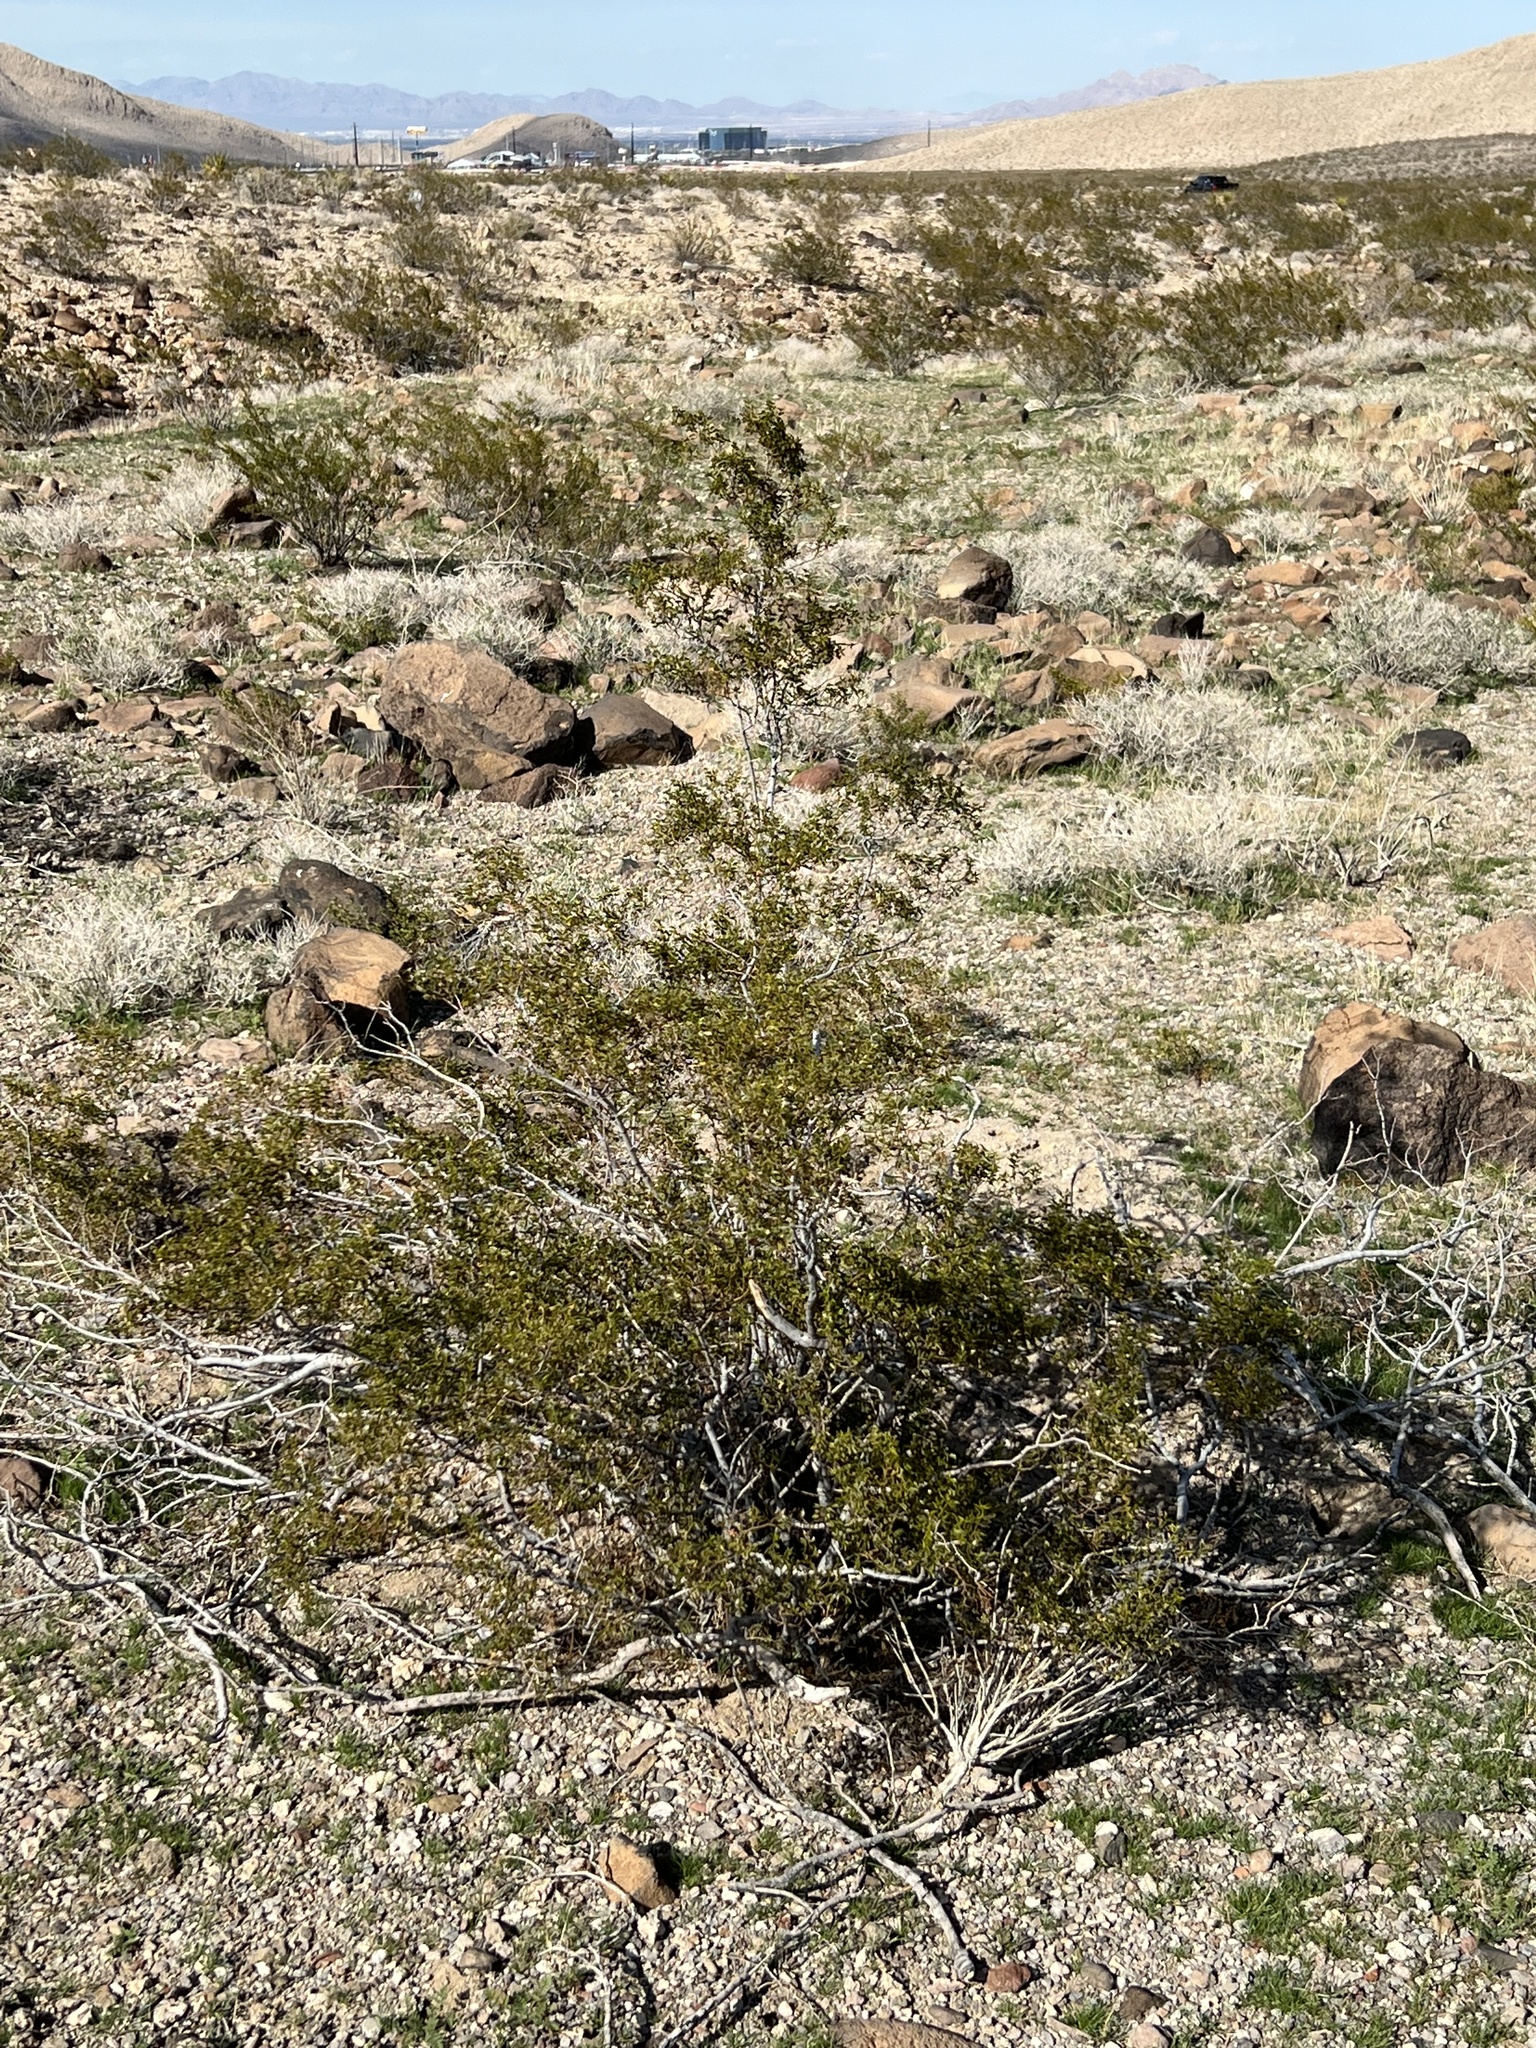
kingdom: Plantae
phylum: Tracheophyta
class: Magnoliopsida
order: Zygophyllales
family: Zygophyllaceae
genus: Larrea
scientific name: Larrea tridentata
